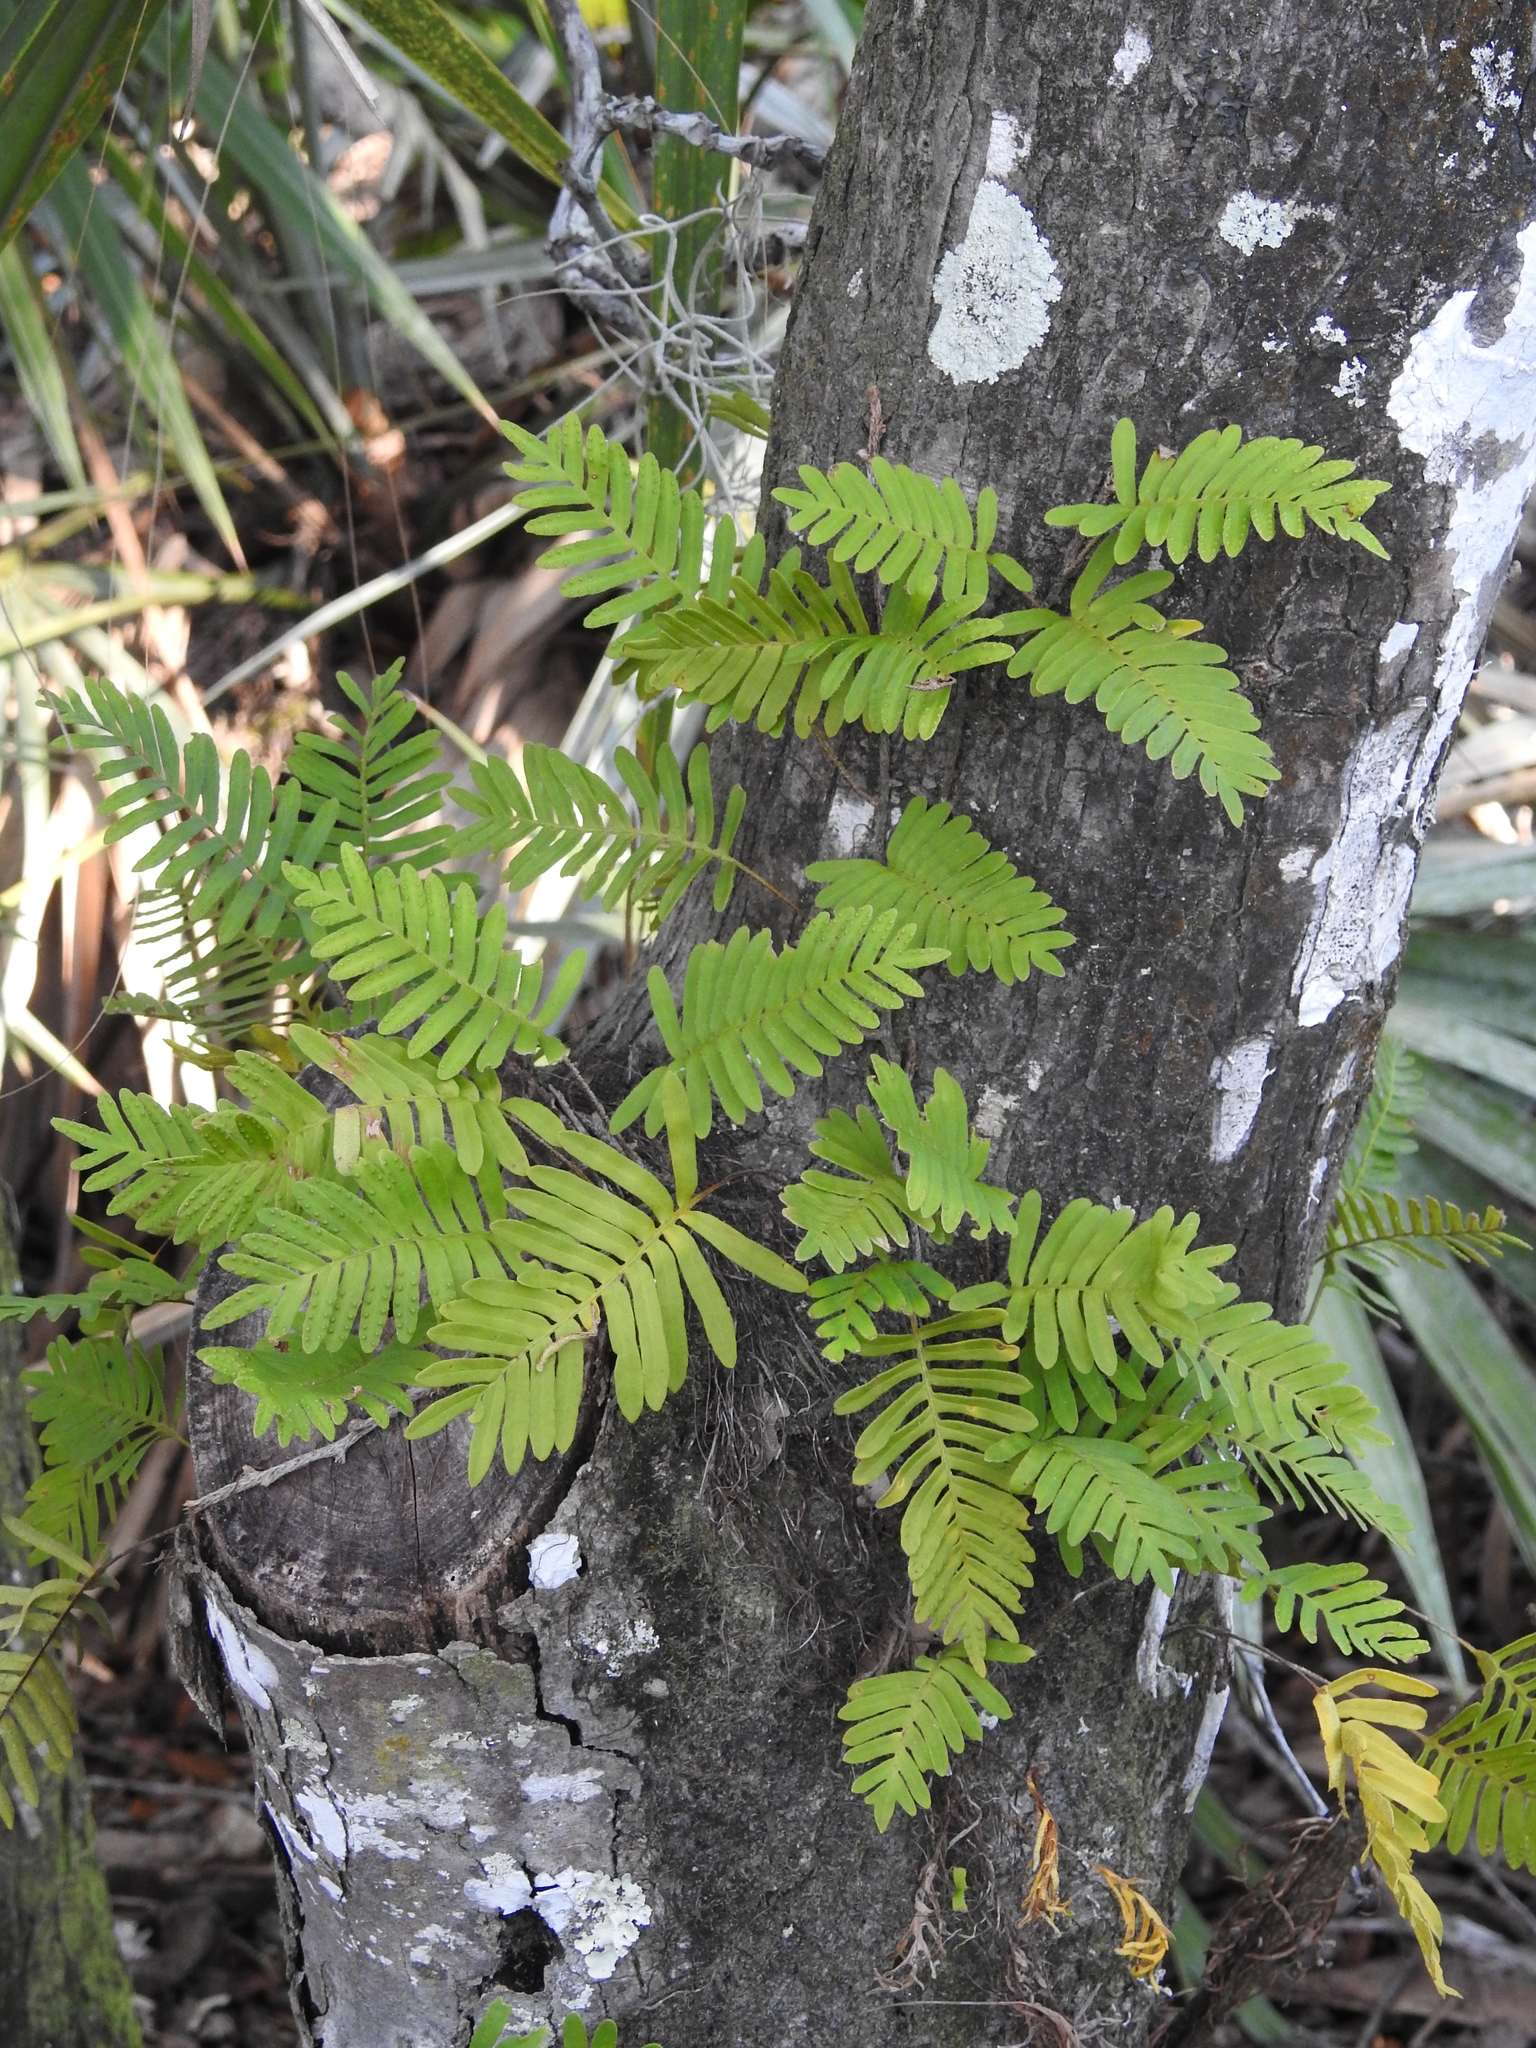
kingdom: Plantae
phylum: Tracheophyta
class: Polypodiopsida
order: Polypodiales
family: Polypodiaceae
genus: Pleopeltis
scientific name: Pleopeltis michauxiana
